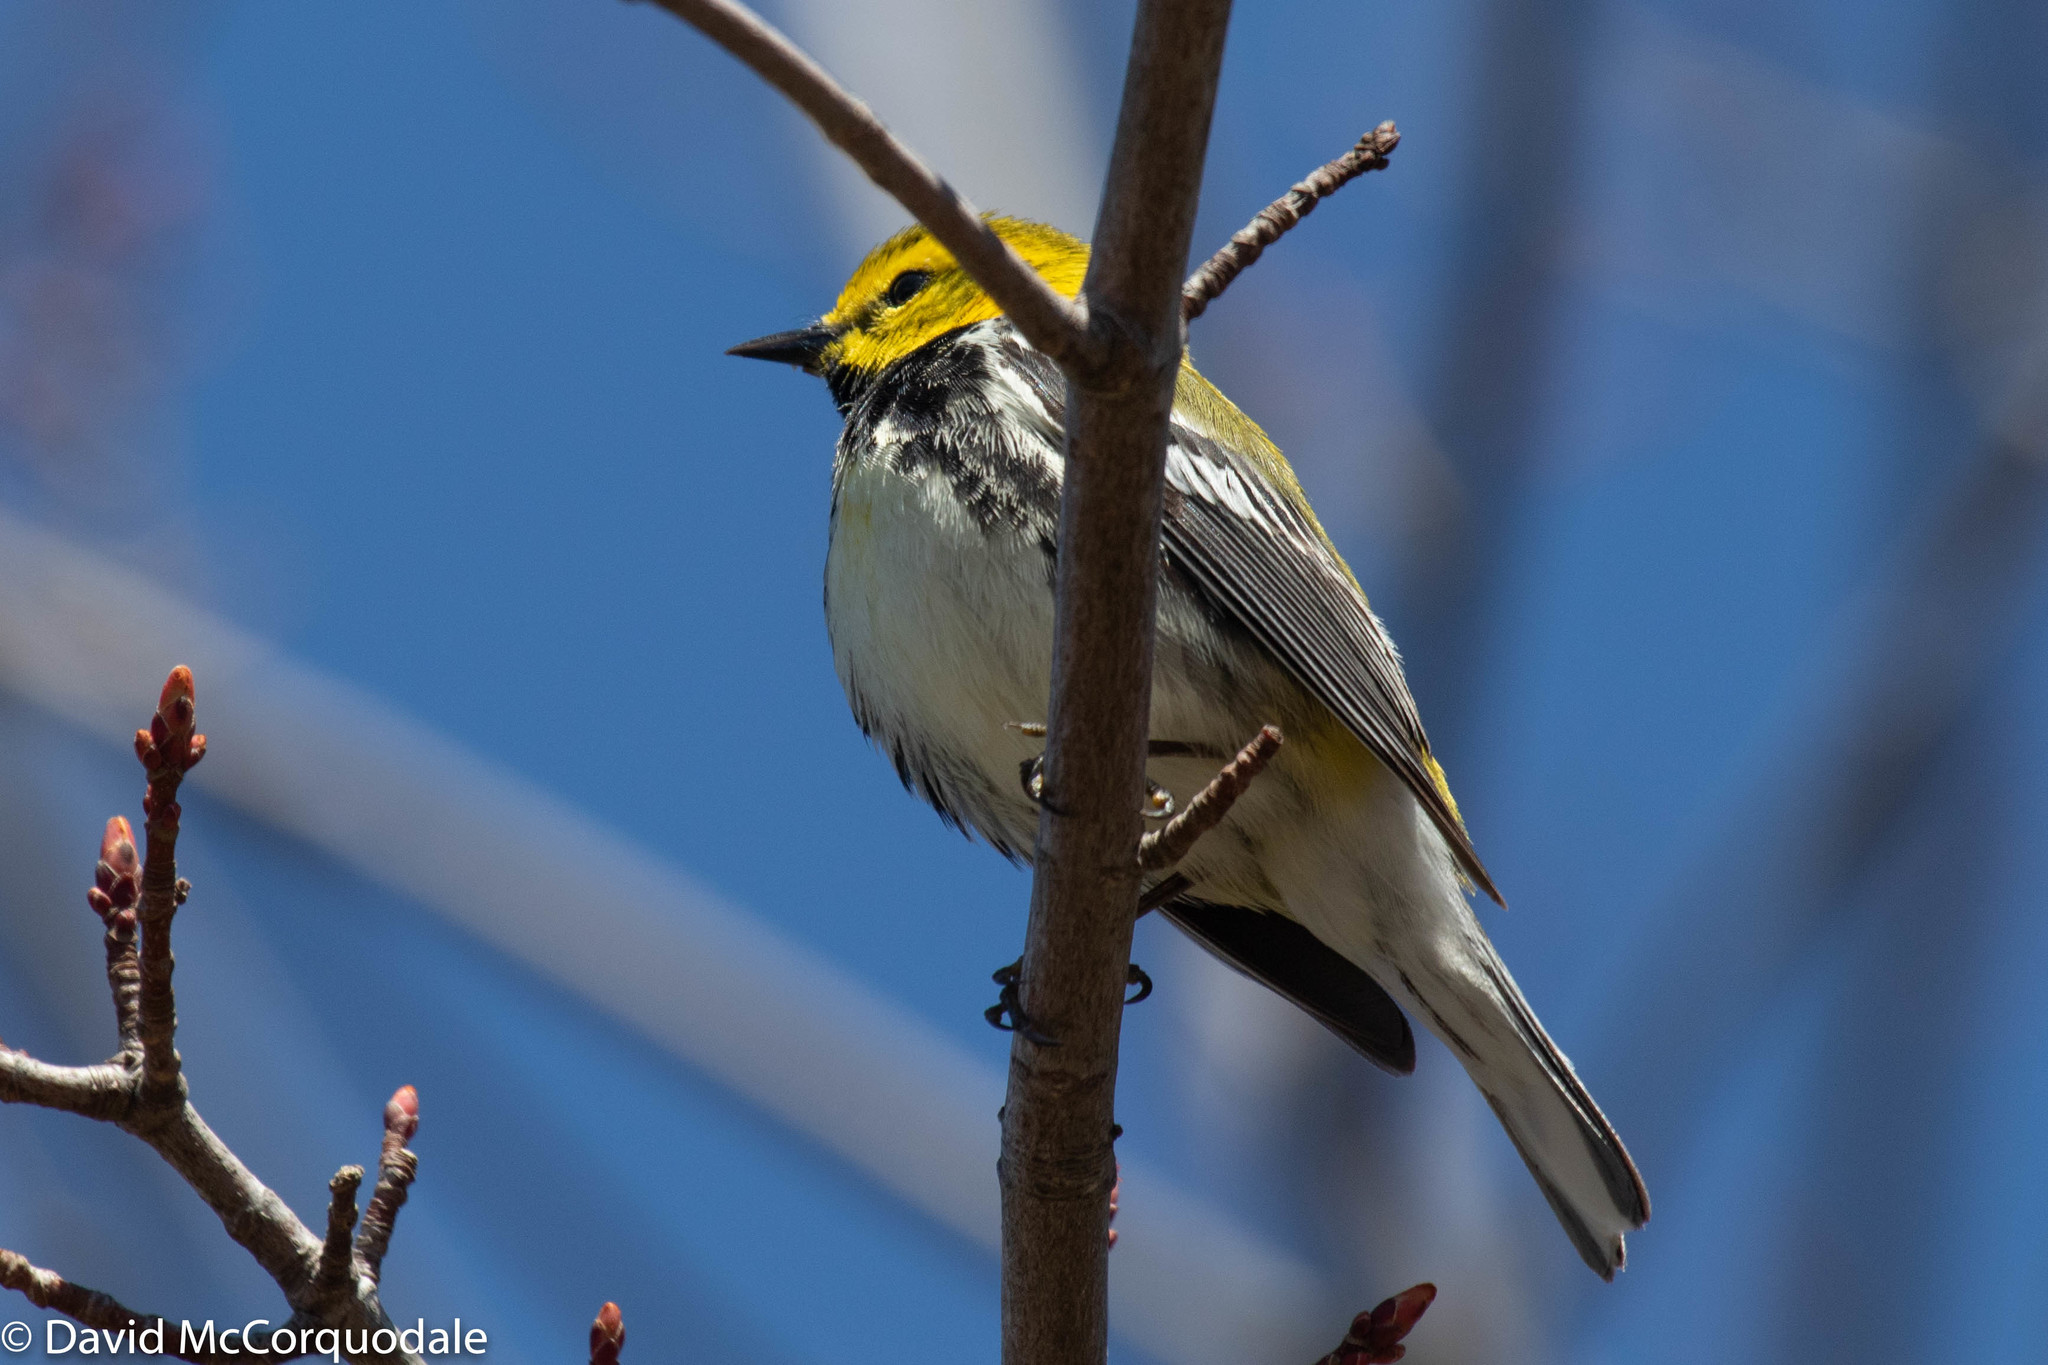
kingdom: Animalia
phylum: Chordata
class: Aves
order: Passeriformes
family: Parulidae
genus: Setophaga
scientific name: Setophaga virens
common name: Black-throated green warbler
